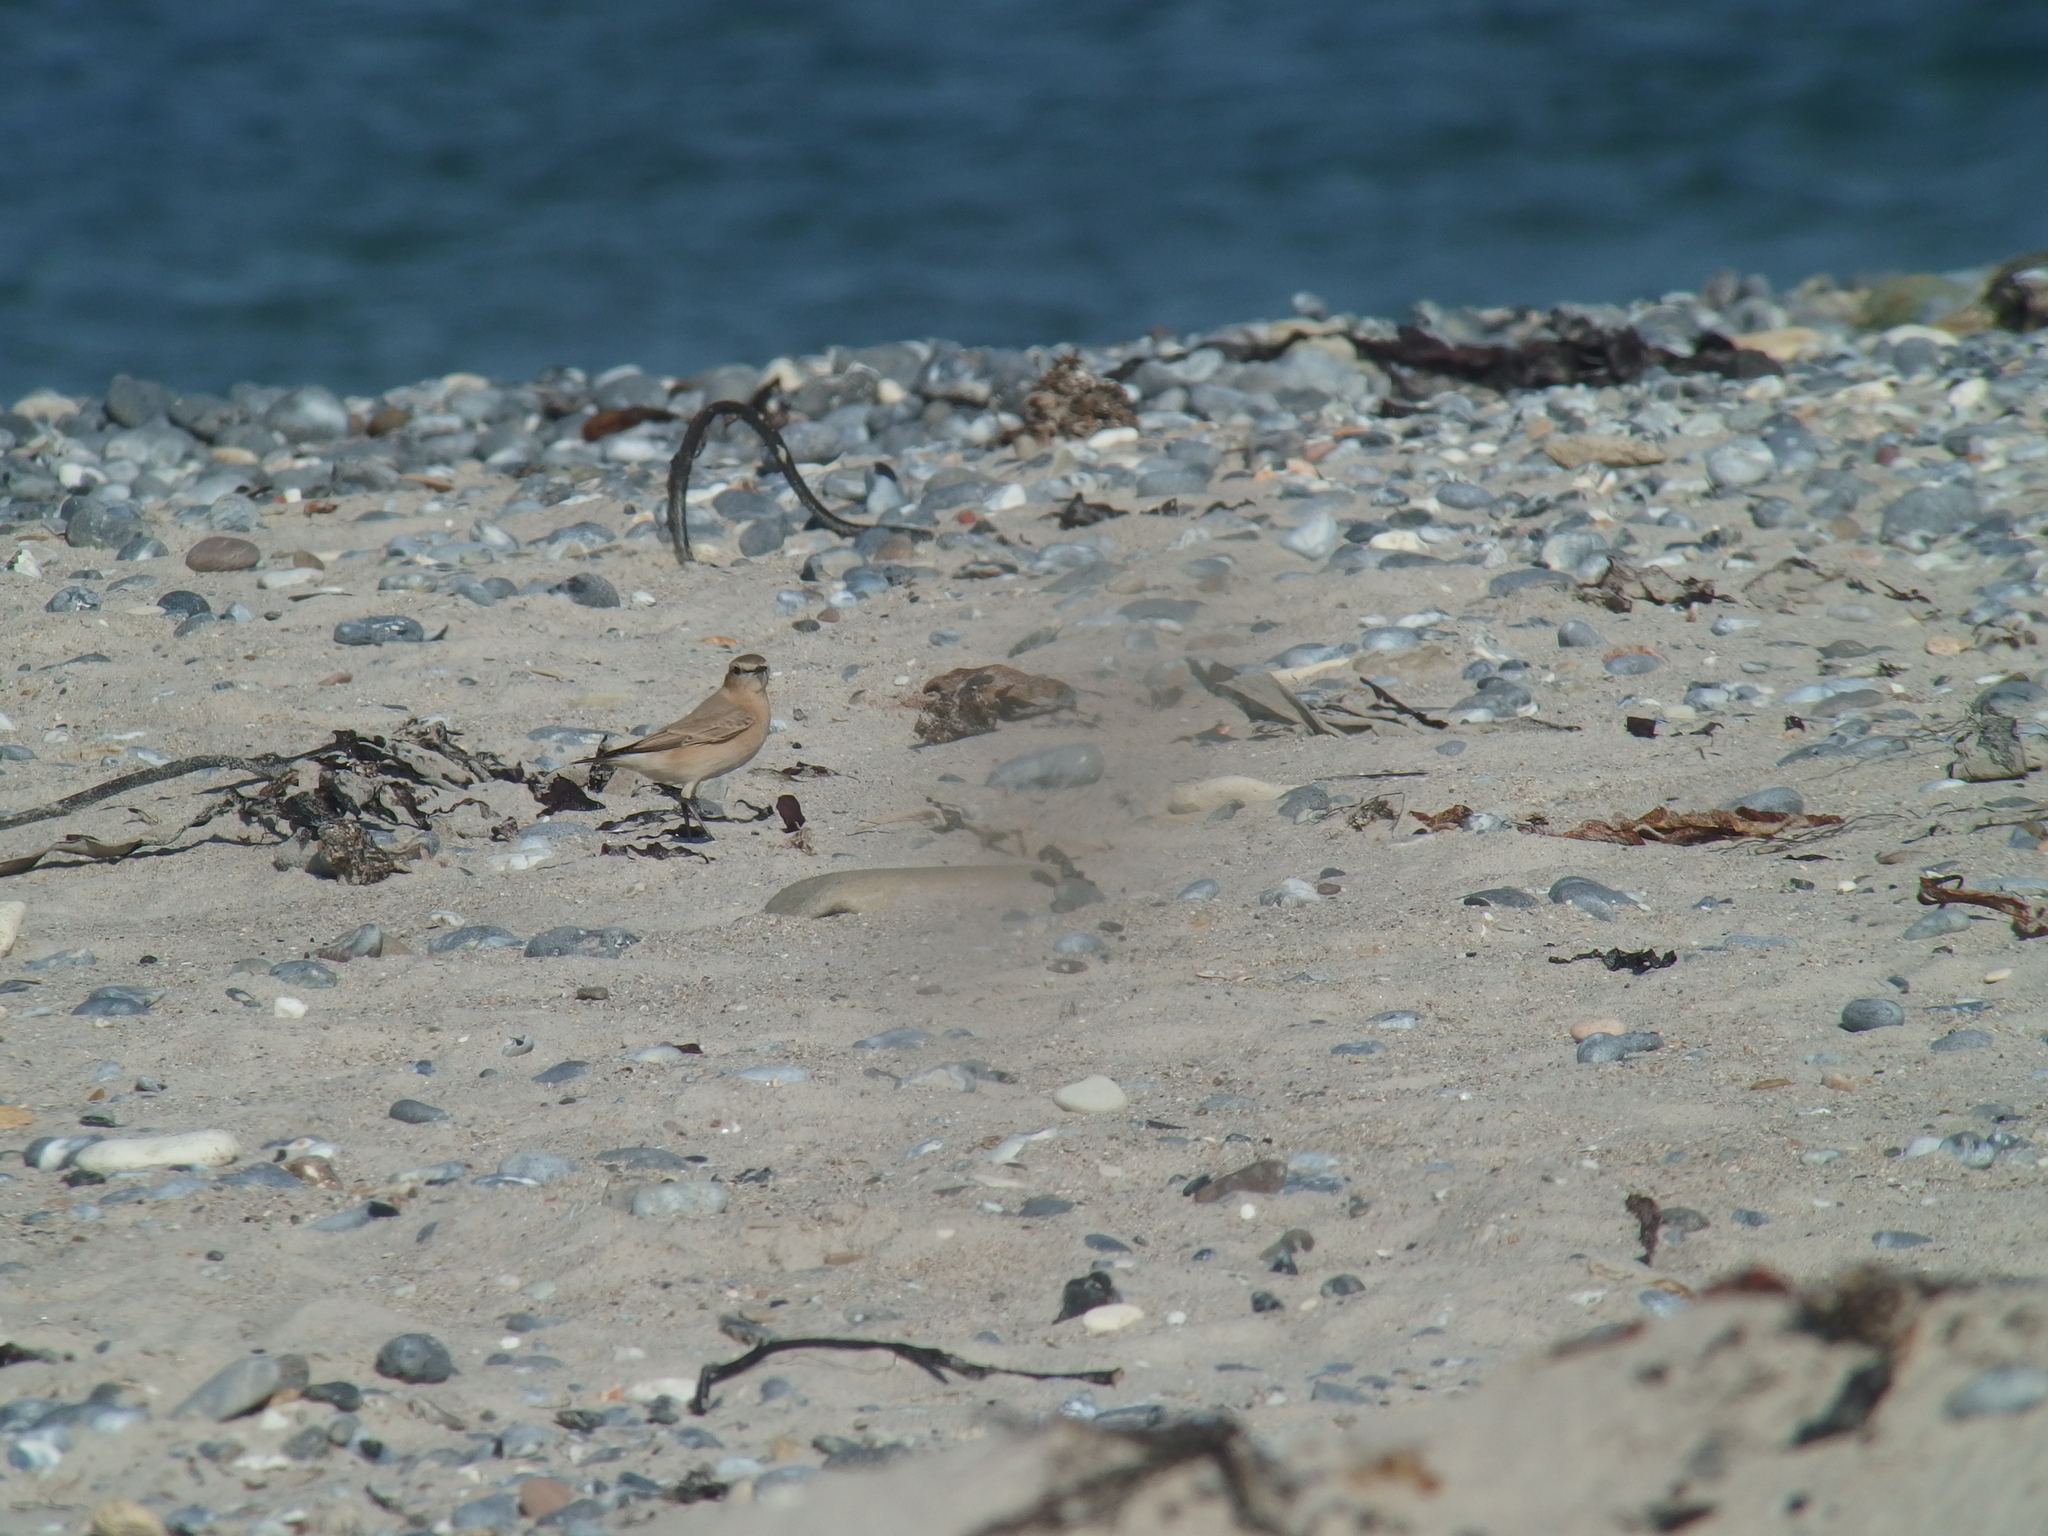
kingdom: Animalia
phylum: Chordata
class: Aves
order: Passeriformes
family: Muscicapidae
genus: Oenanthe
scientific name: Oenanthe isabellina
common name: Isabelline wheatear
